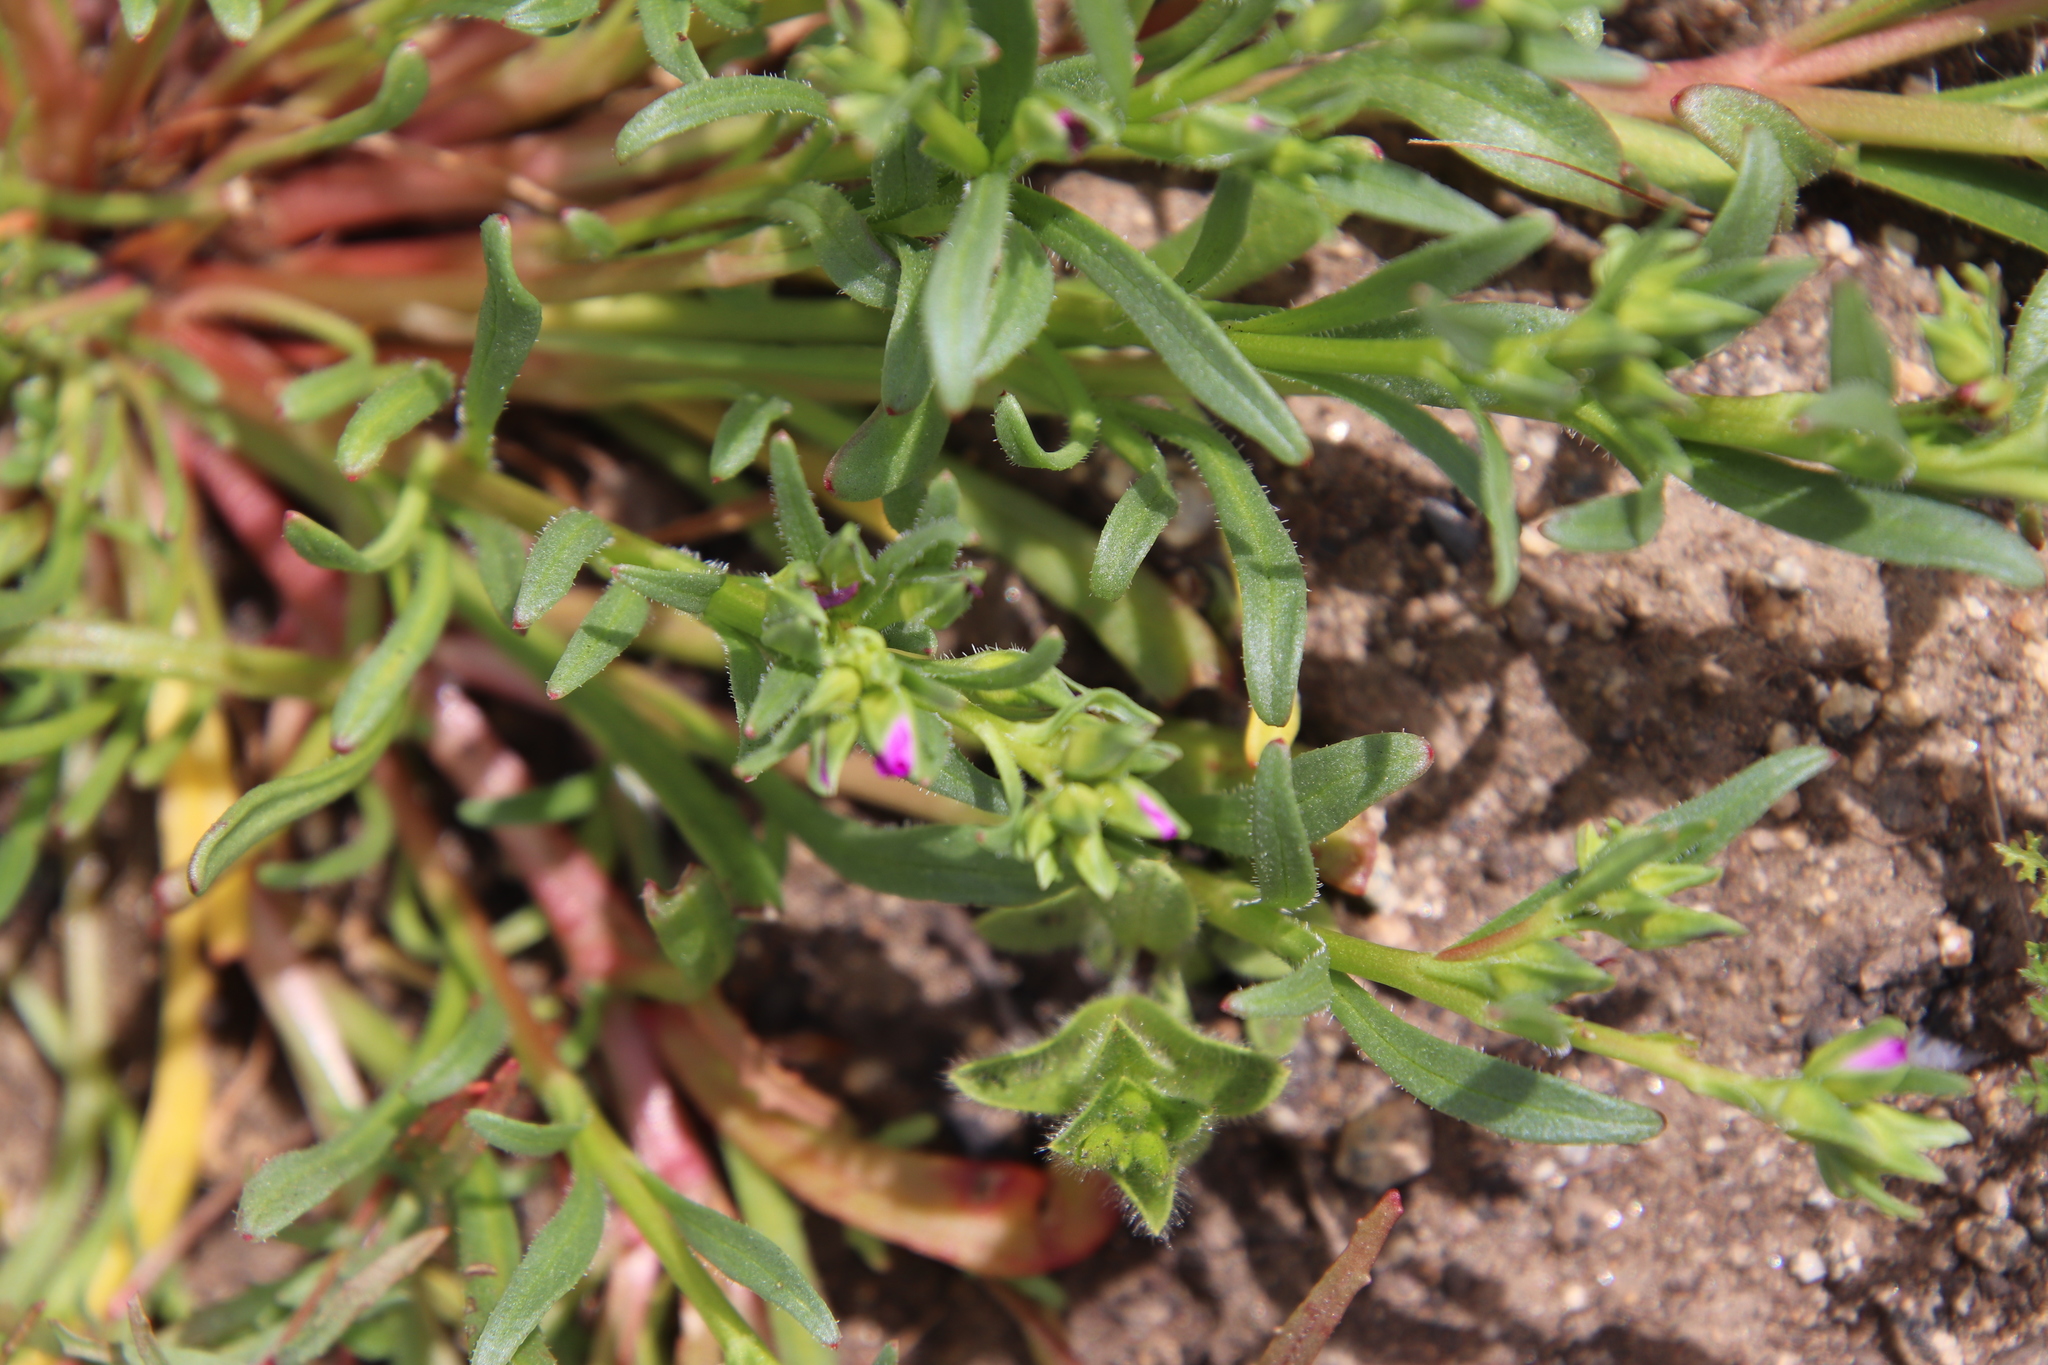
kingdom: Plantae
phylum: Tracheophyta
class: Magnoliopsida
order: Caryophyllales
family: Montiaceae
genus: Calandrinia
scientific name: Calandrinia menziesii
